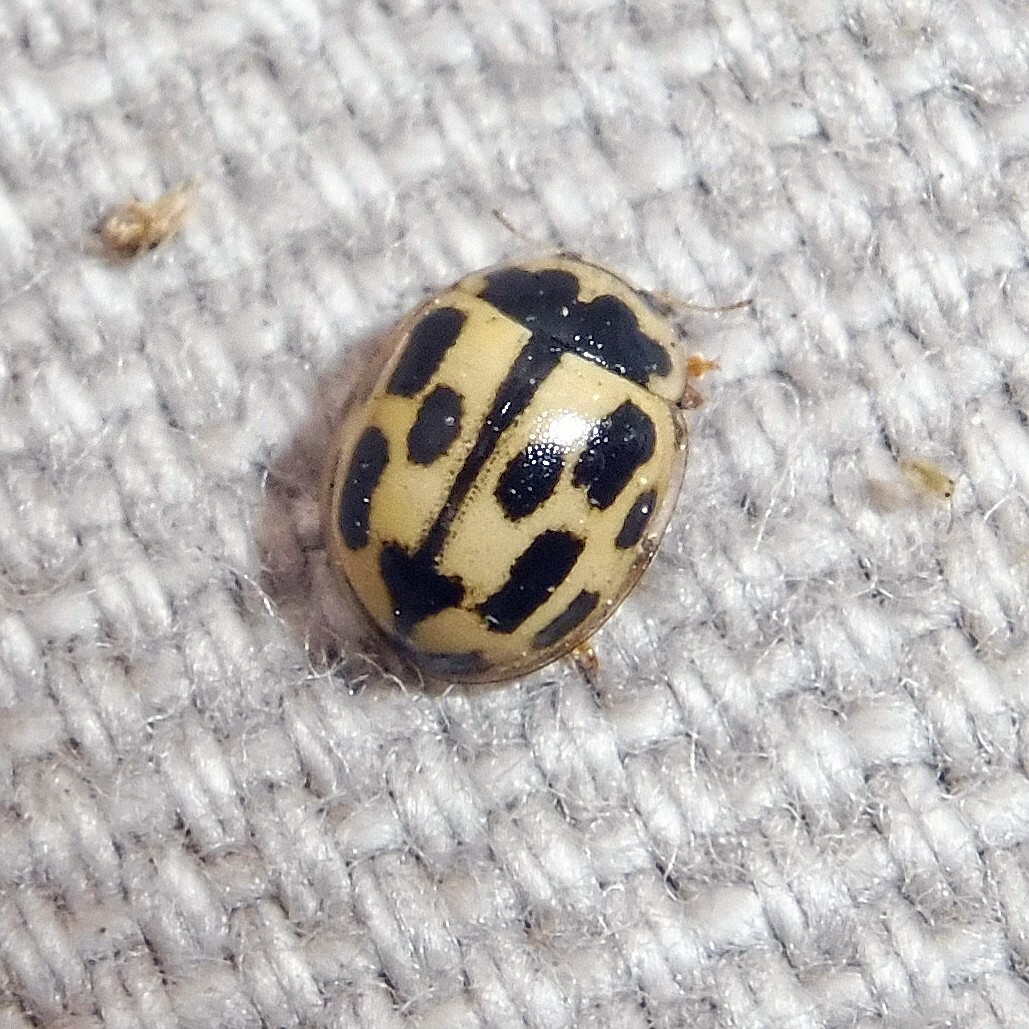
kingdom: Animalia
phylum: Arthropoda
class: Insecta
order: Coleoptera
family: Coccinellidae
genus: Propylaea
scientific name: Propylaea quatuordecimpunctata
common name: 14-spotted ladybird beetle
